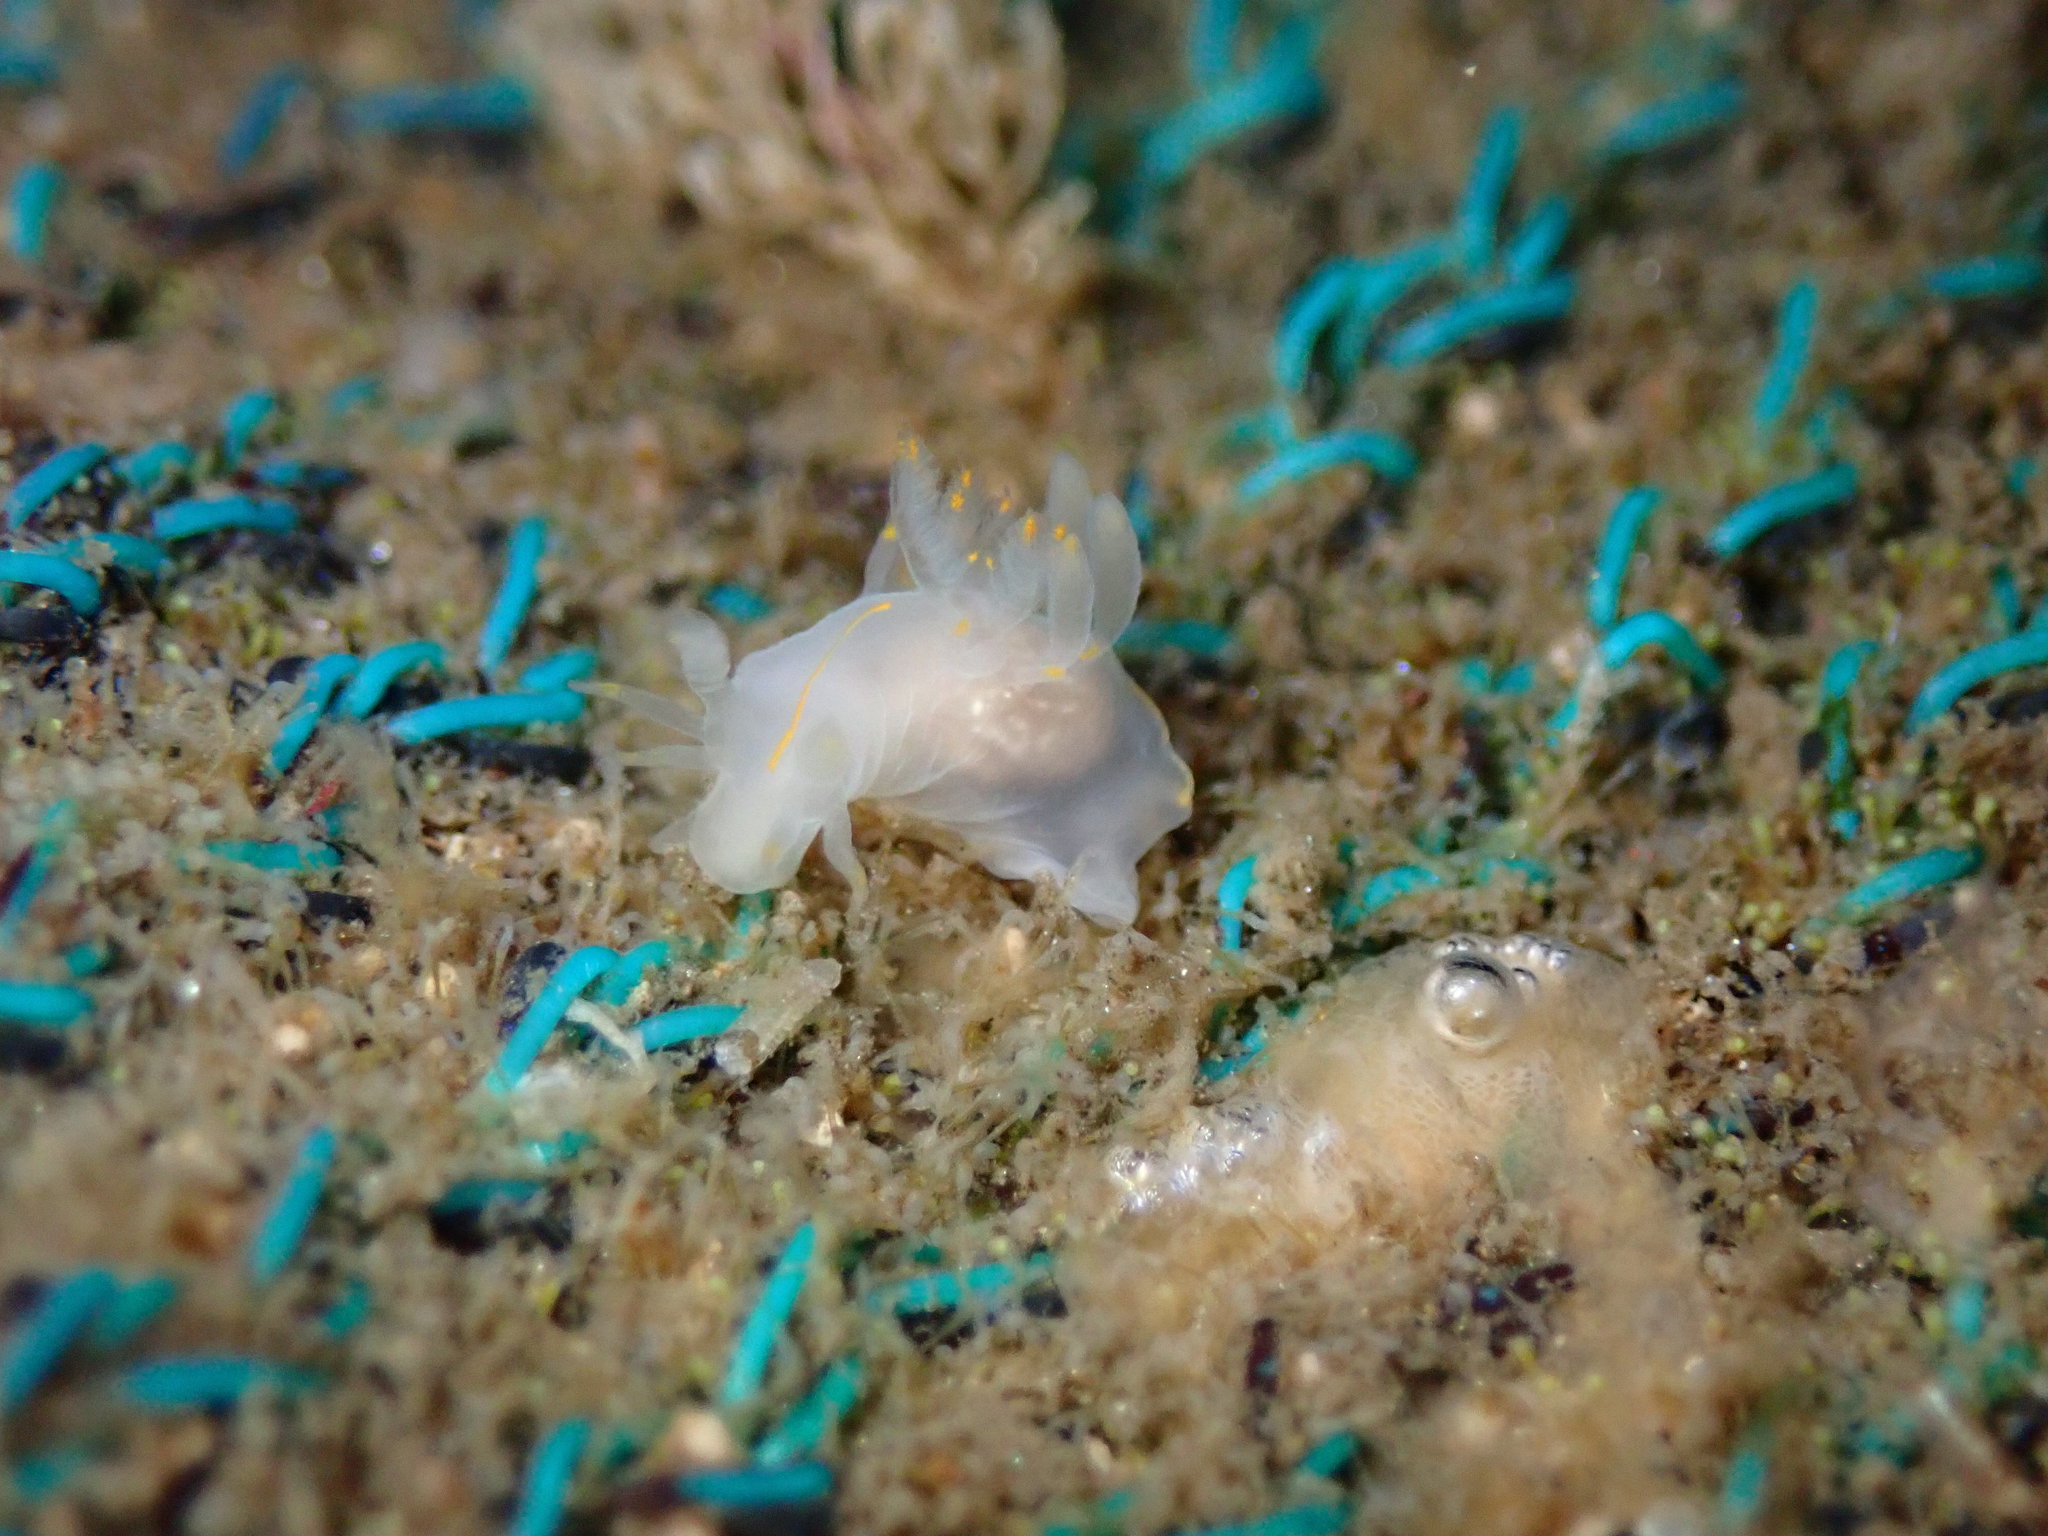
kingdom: Animalia
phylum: Mollusca
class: Gastropoda
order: Nudibranchia
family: Goniodorididae
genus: Ancula
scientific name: Ancula pacifica
